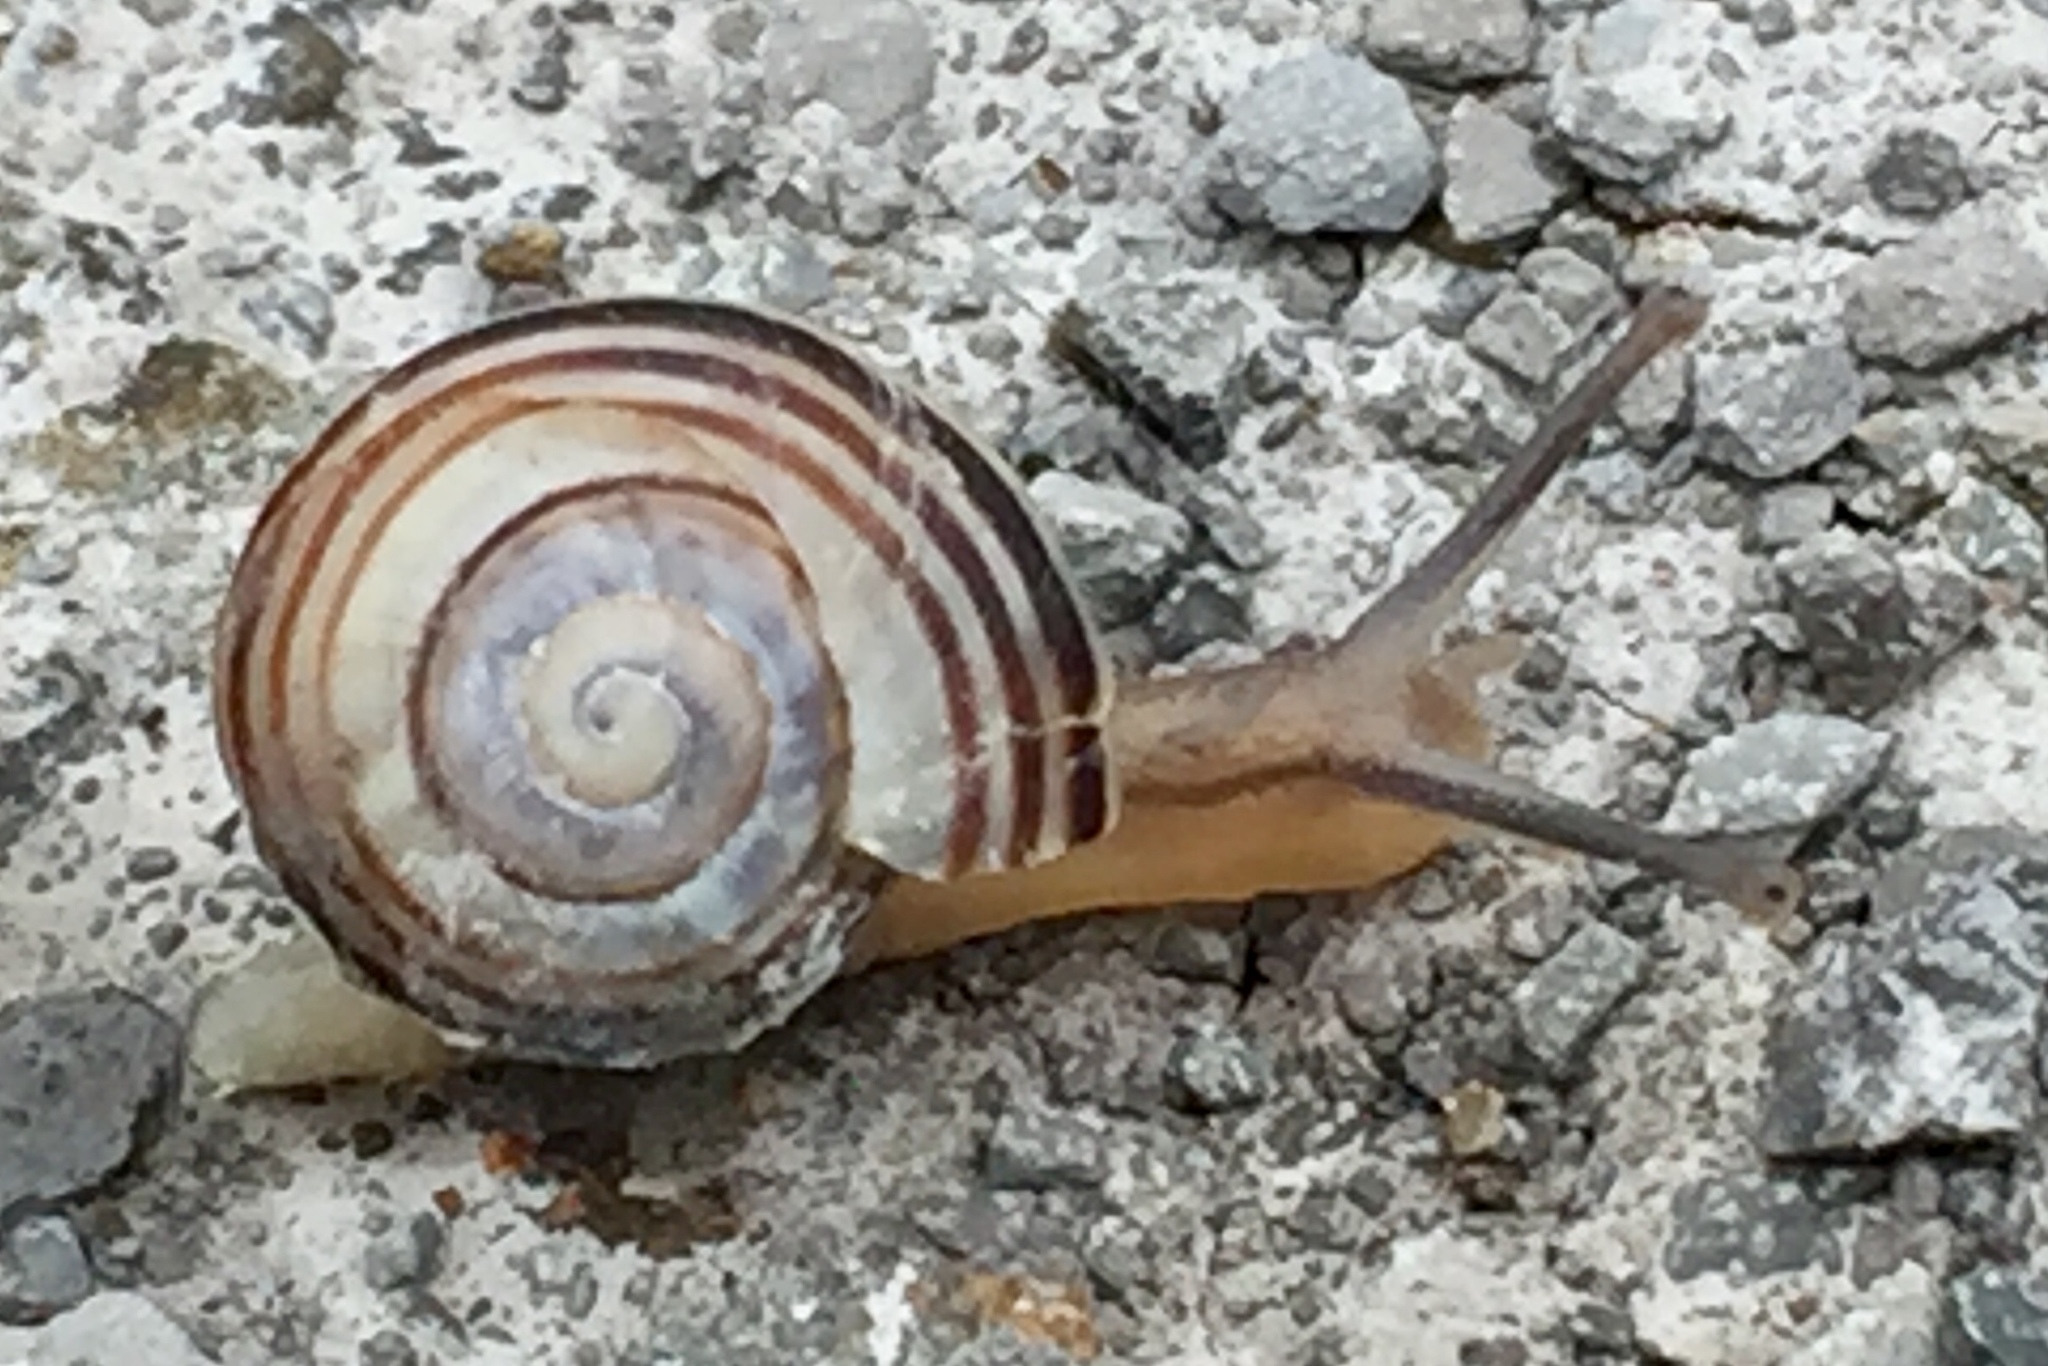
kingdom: Animalia
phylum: Mollusca
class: Gastropoda
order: Stylommatophora
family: Helicidae
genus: Cepaea
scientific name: Cepaea
